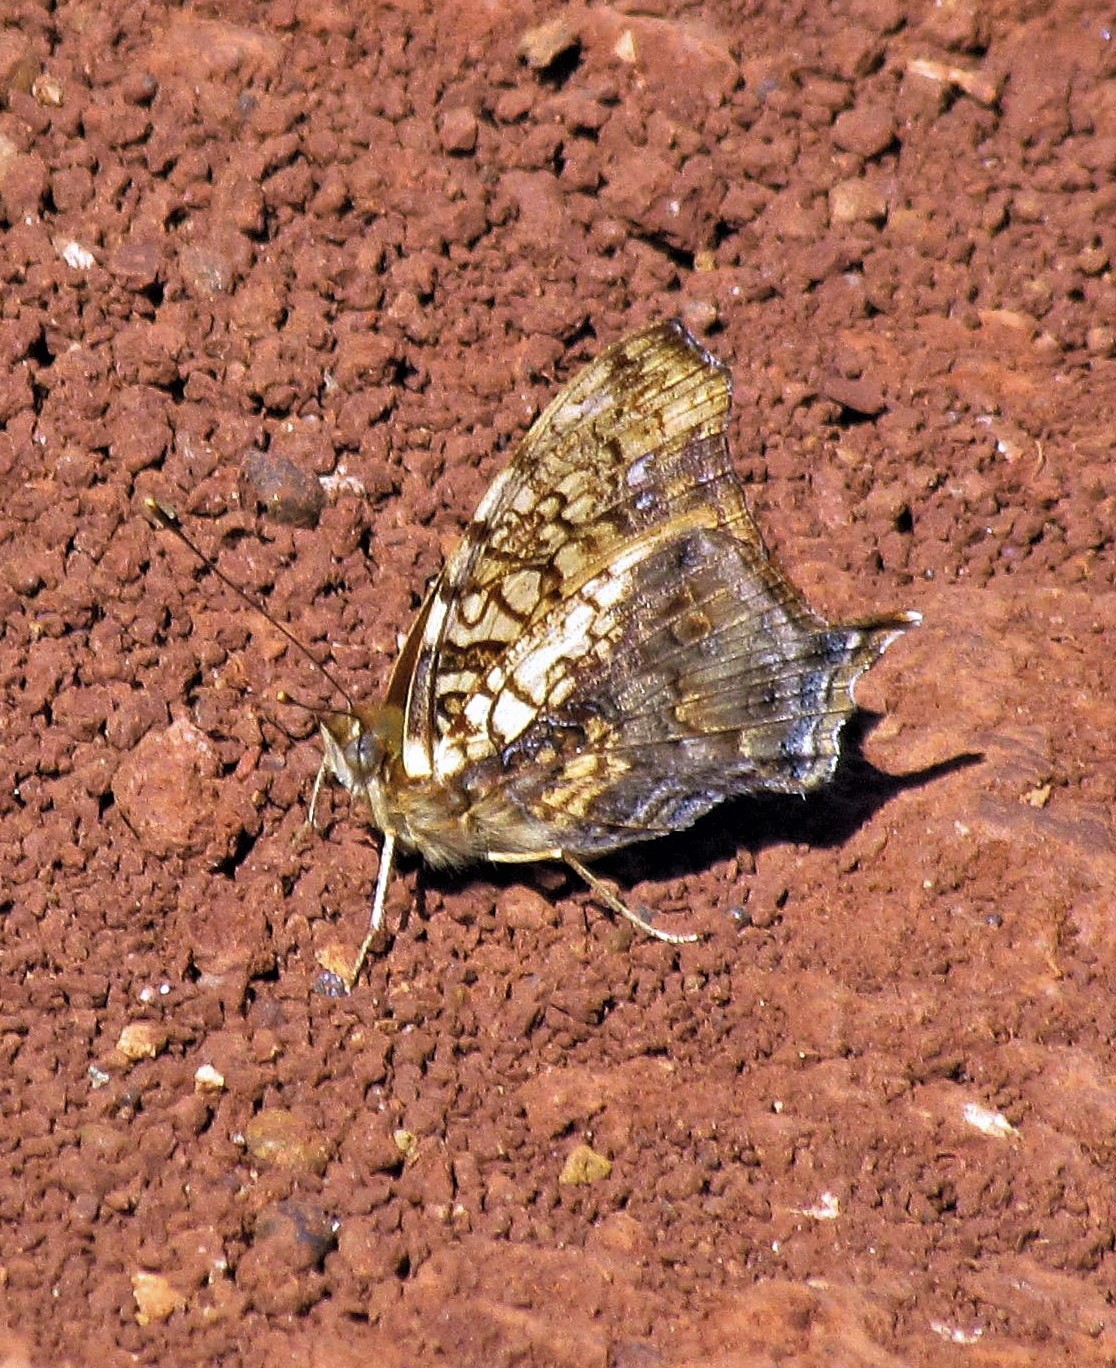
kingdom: Animalia
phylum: Arthropoda
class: Insecta
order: Lepidoptera
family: Nymphalidae
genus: Hypanartia
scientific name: Hypanartia lethe
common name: Orange mapwing
